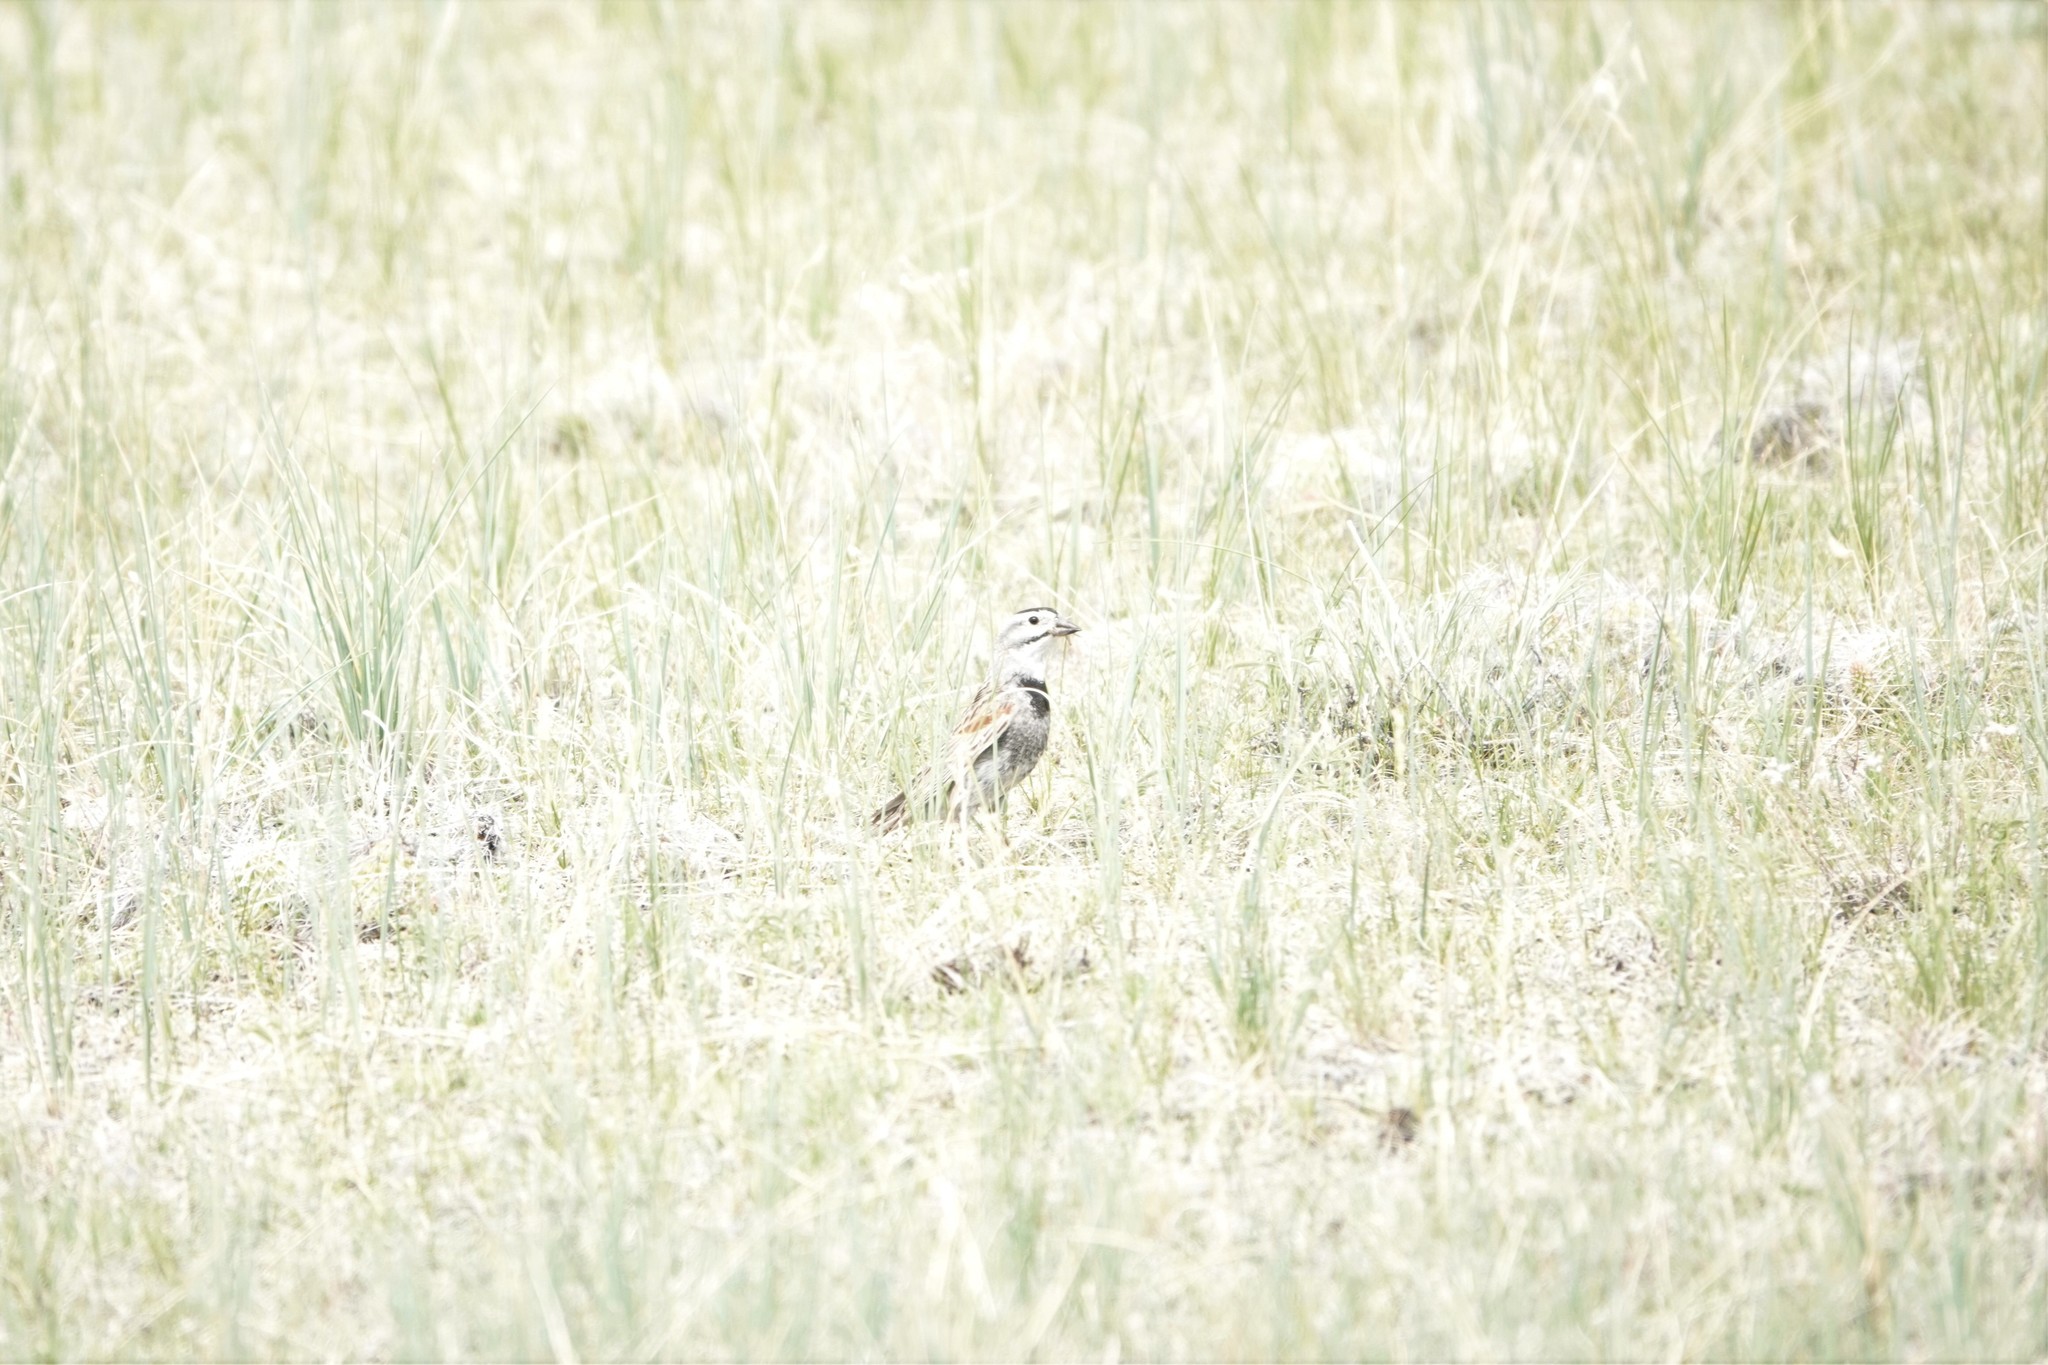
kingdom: Animalia
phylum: Chordata
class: Aves
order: Passeriformes
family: Calcariidae
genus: Rhynchophanes
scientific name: Rhynchophanes mccownii
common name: Mccown's longspur
